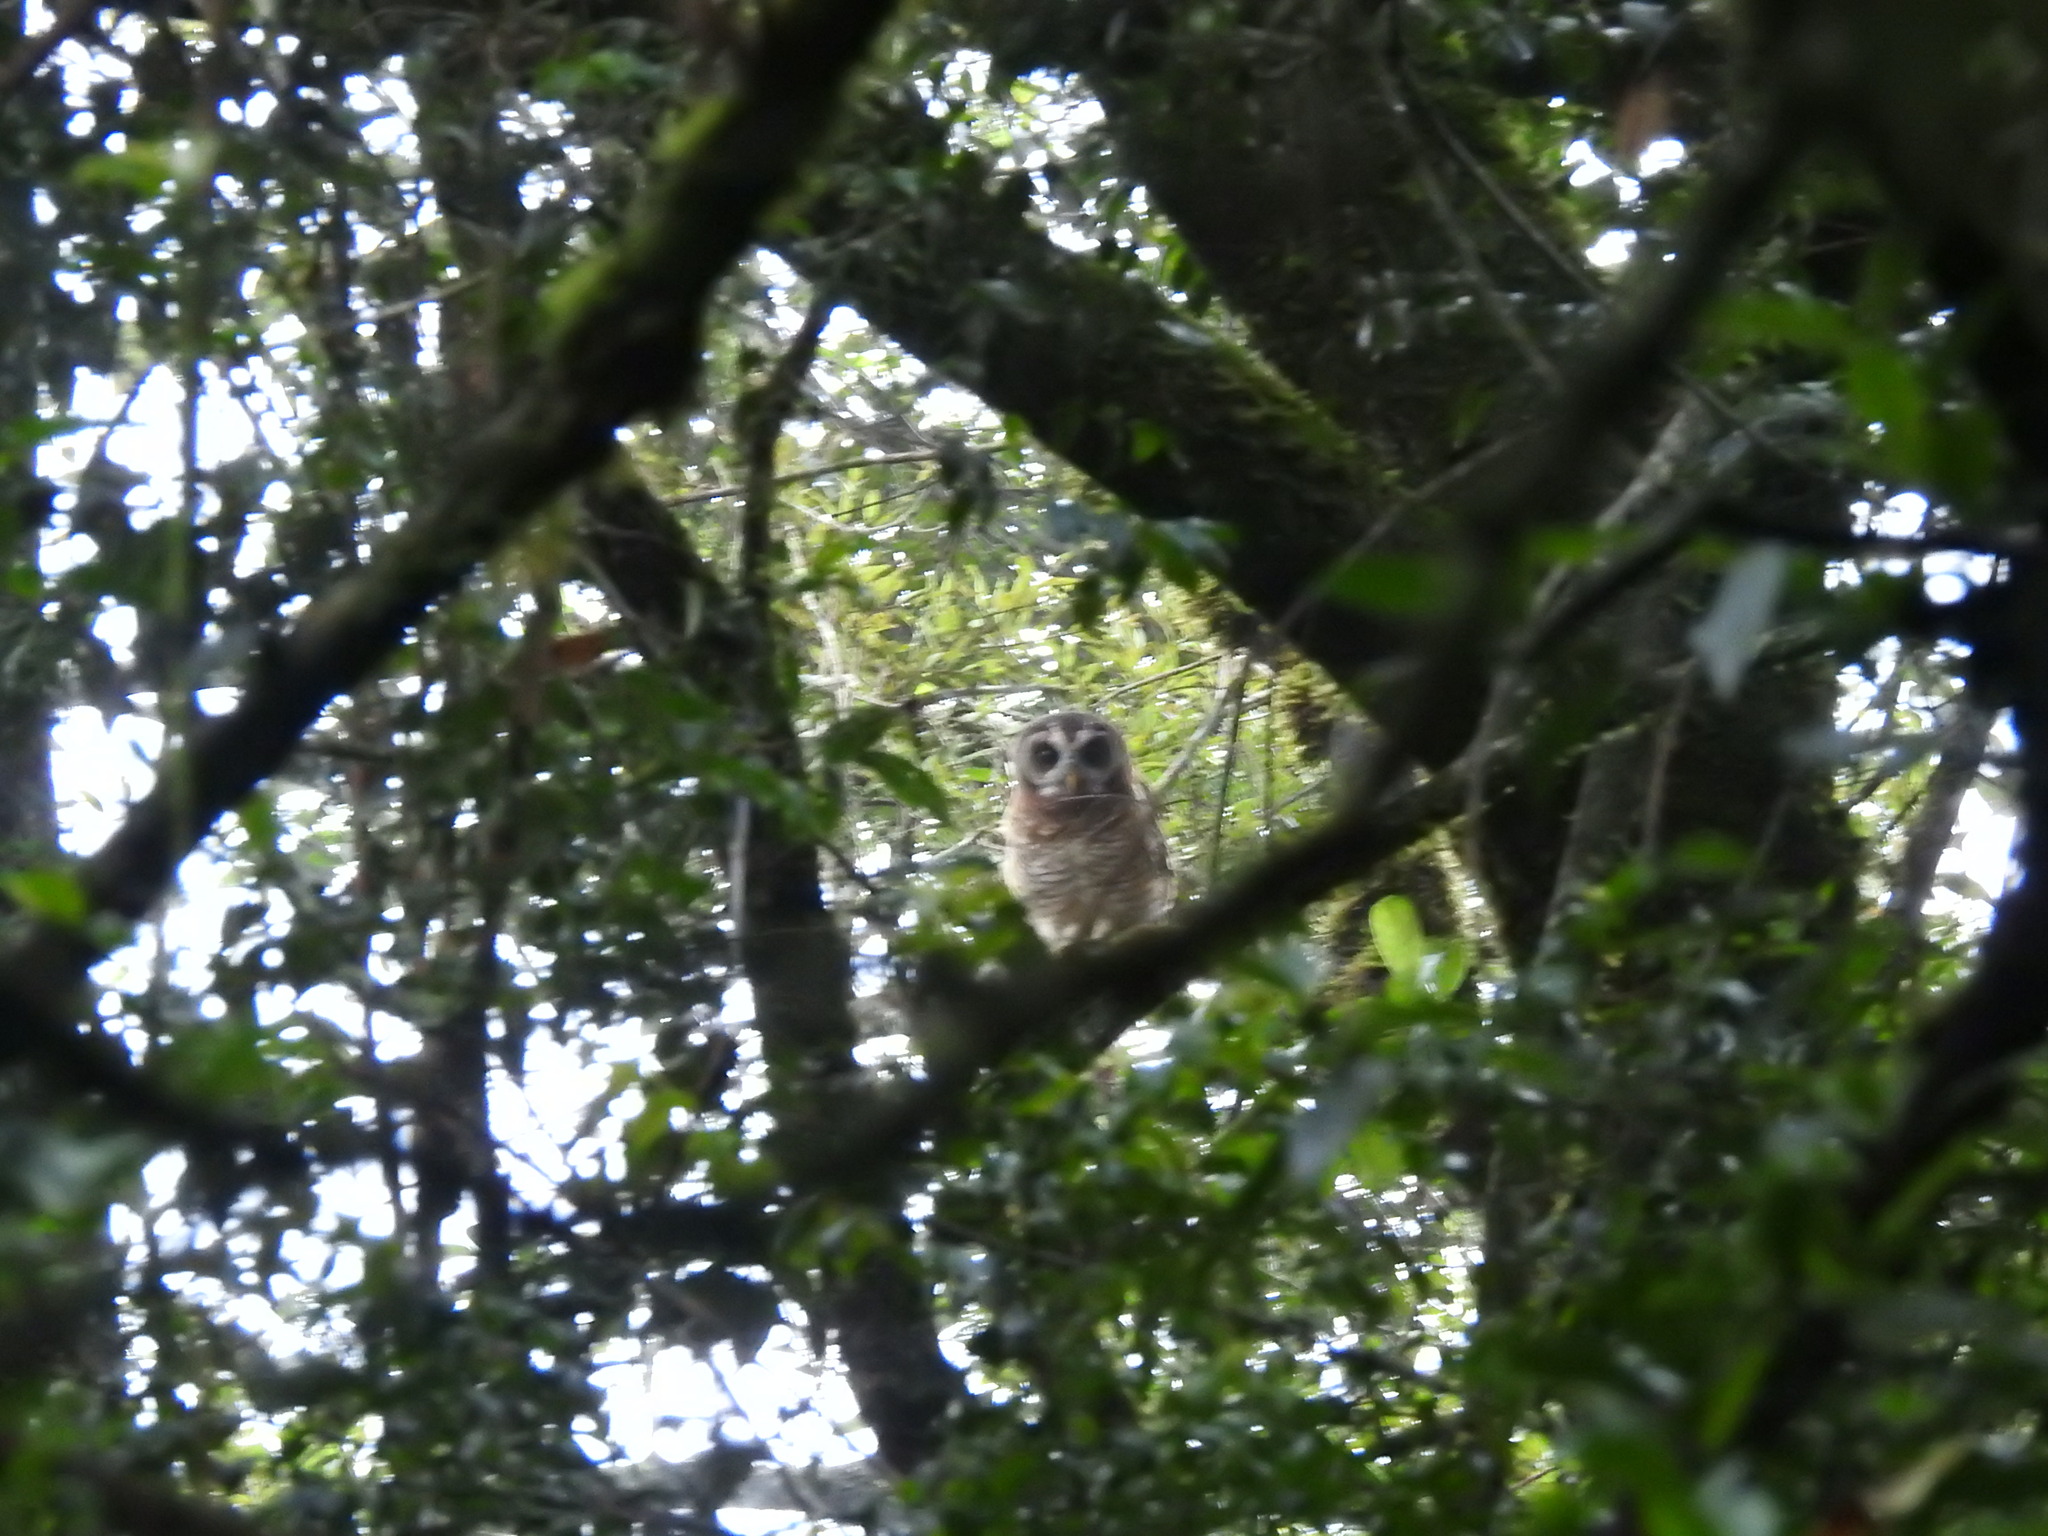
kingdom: Animalia
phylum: Chordata
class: Aves
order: Strigiformes
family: Strigidae
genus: Strix
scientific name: Strix woodfordii
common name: African wood owl
